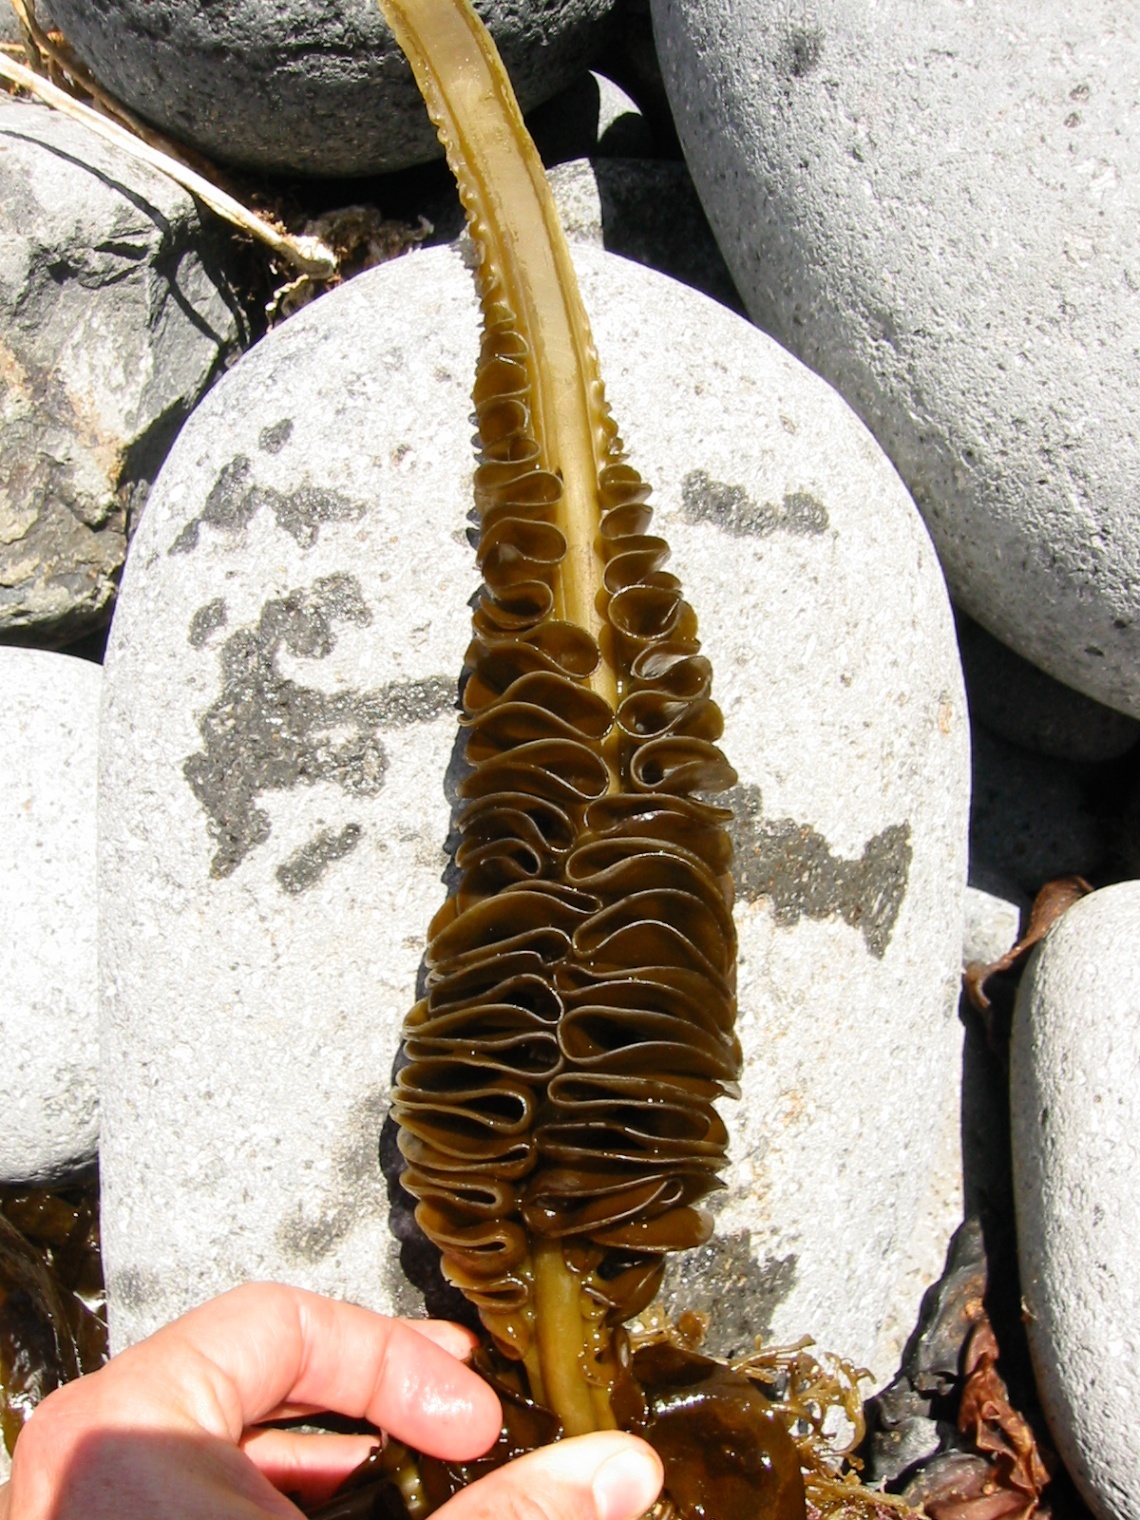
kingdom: Chromista
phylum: Ochrophyta
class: Phaeophyceae
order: Laminariales
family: Alariaceae
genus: Undaria
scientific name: Undaria pinnatifida
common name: Asian kelp
